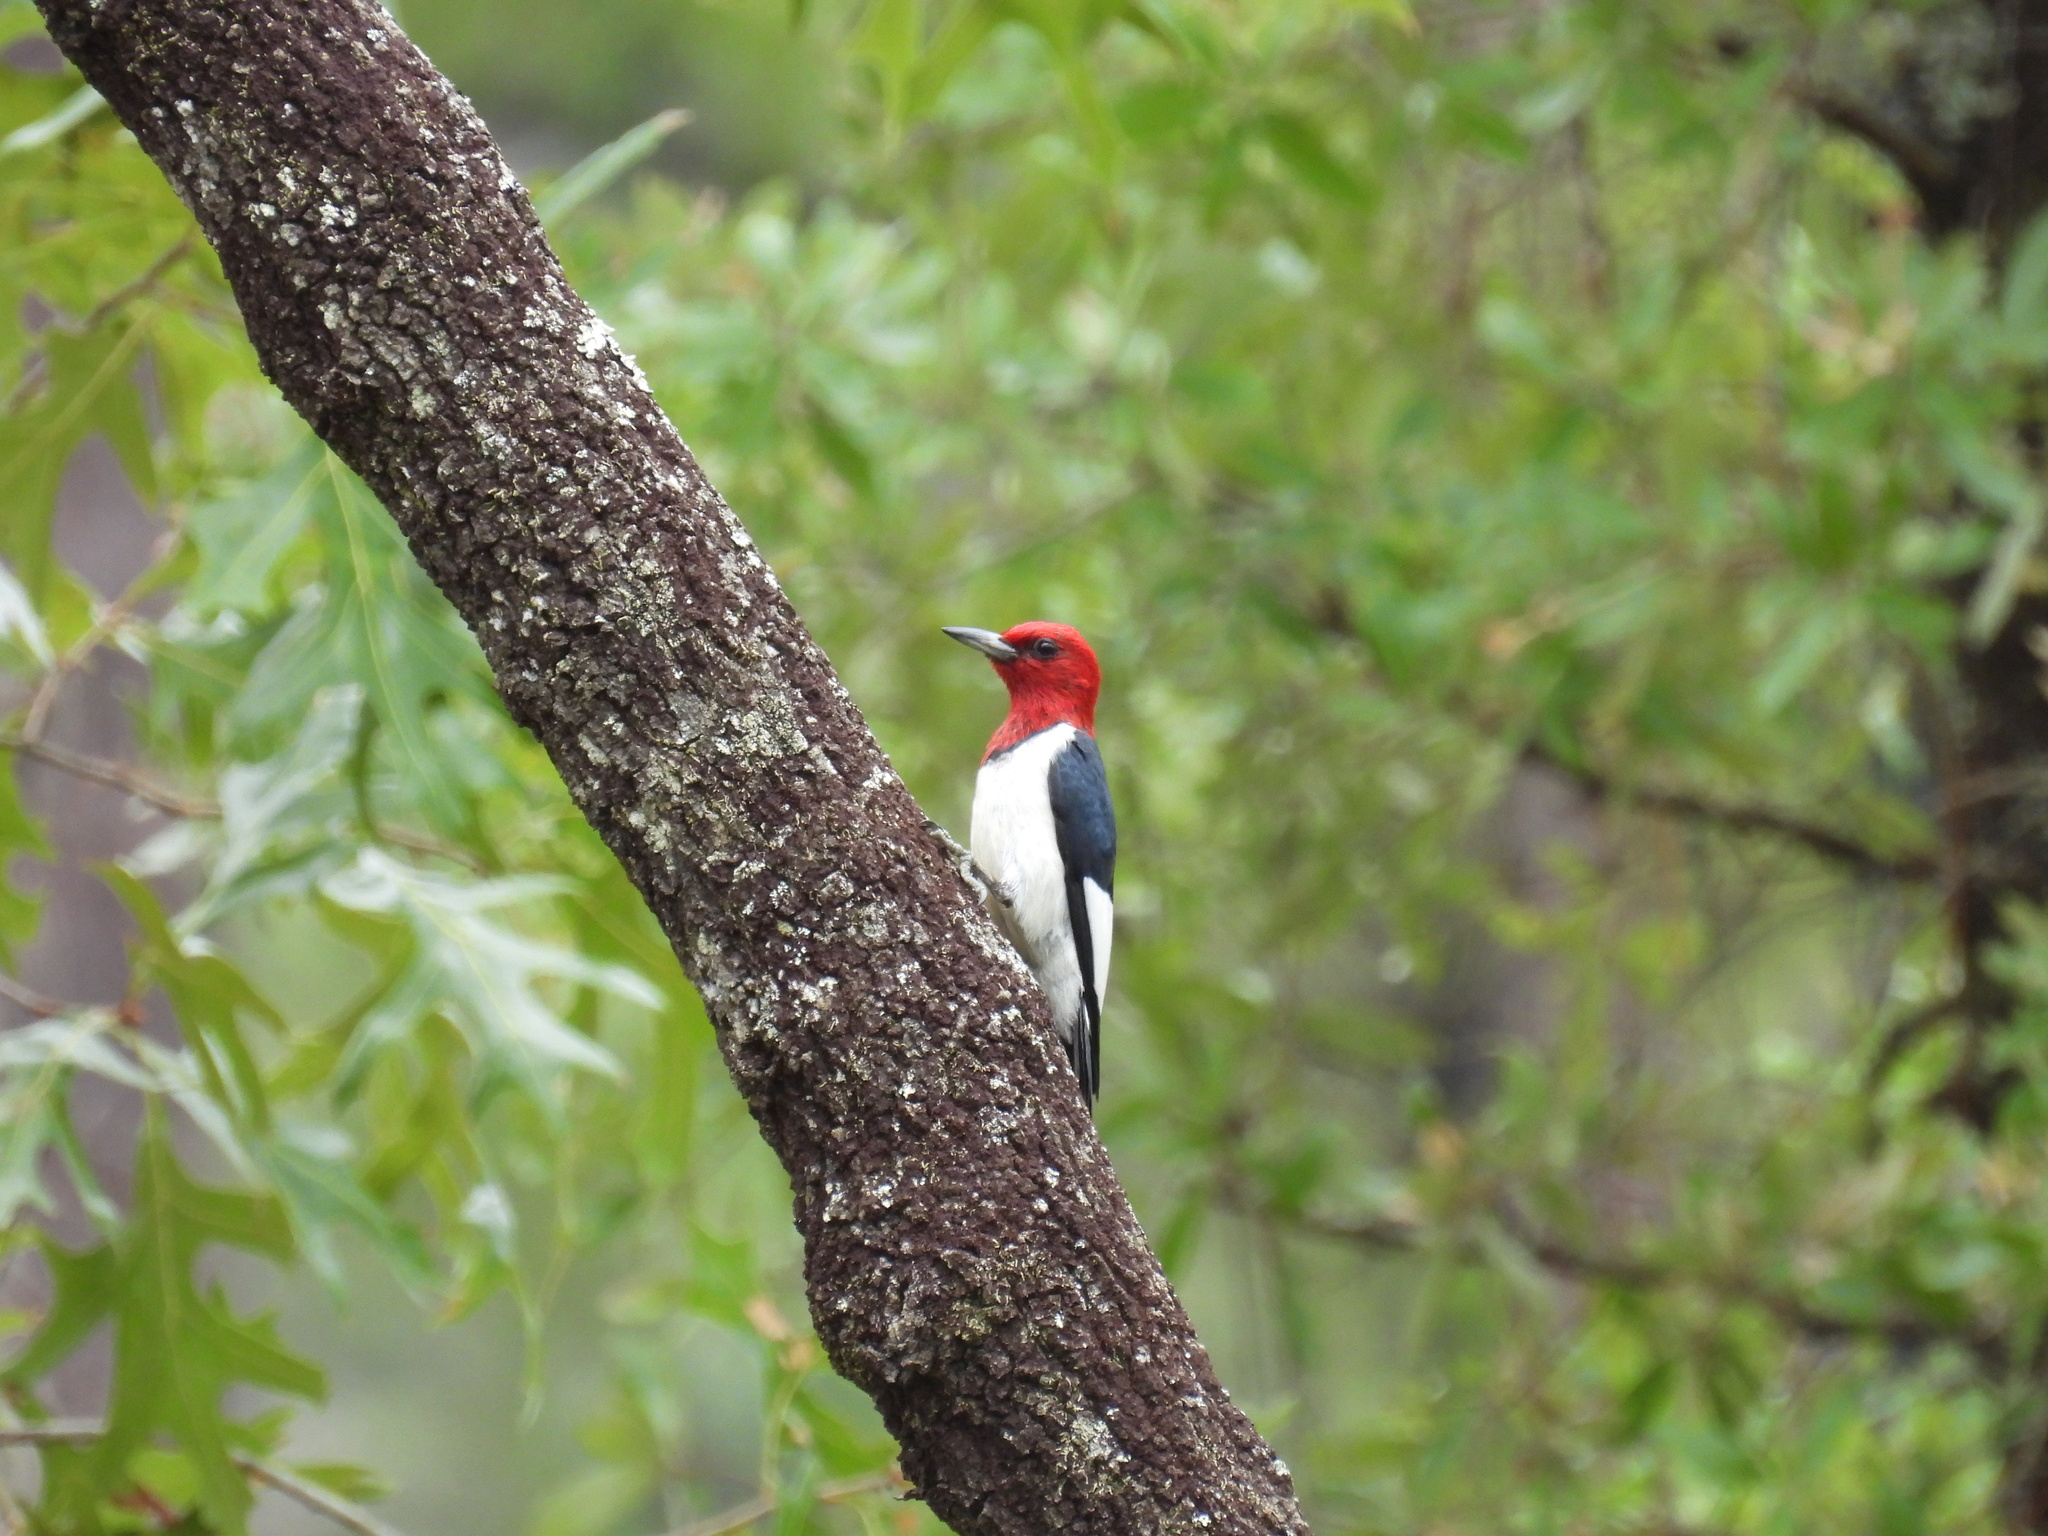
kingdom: Animalia
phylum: Chordata
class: Aves
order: Piciformes
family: Picidae
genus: Melanerpes
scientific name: Melanerpes erythrocephalus
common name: Red-headed woodpecker
